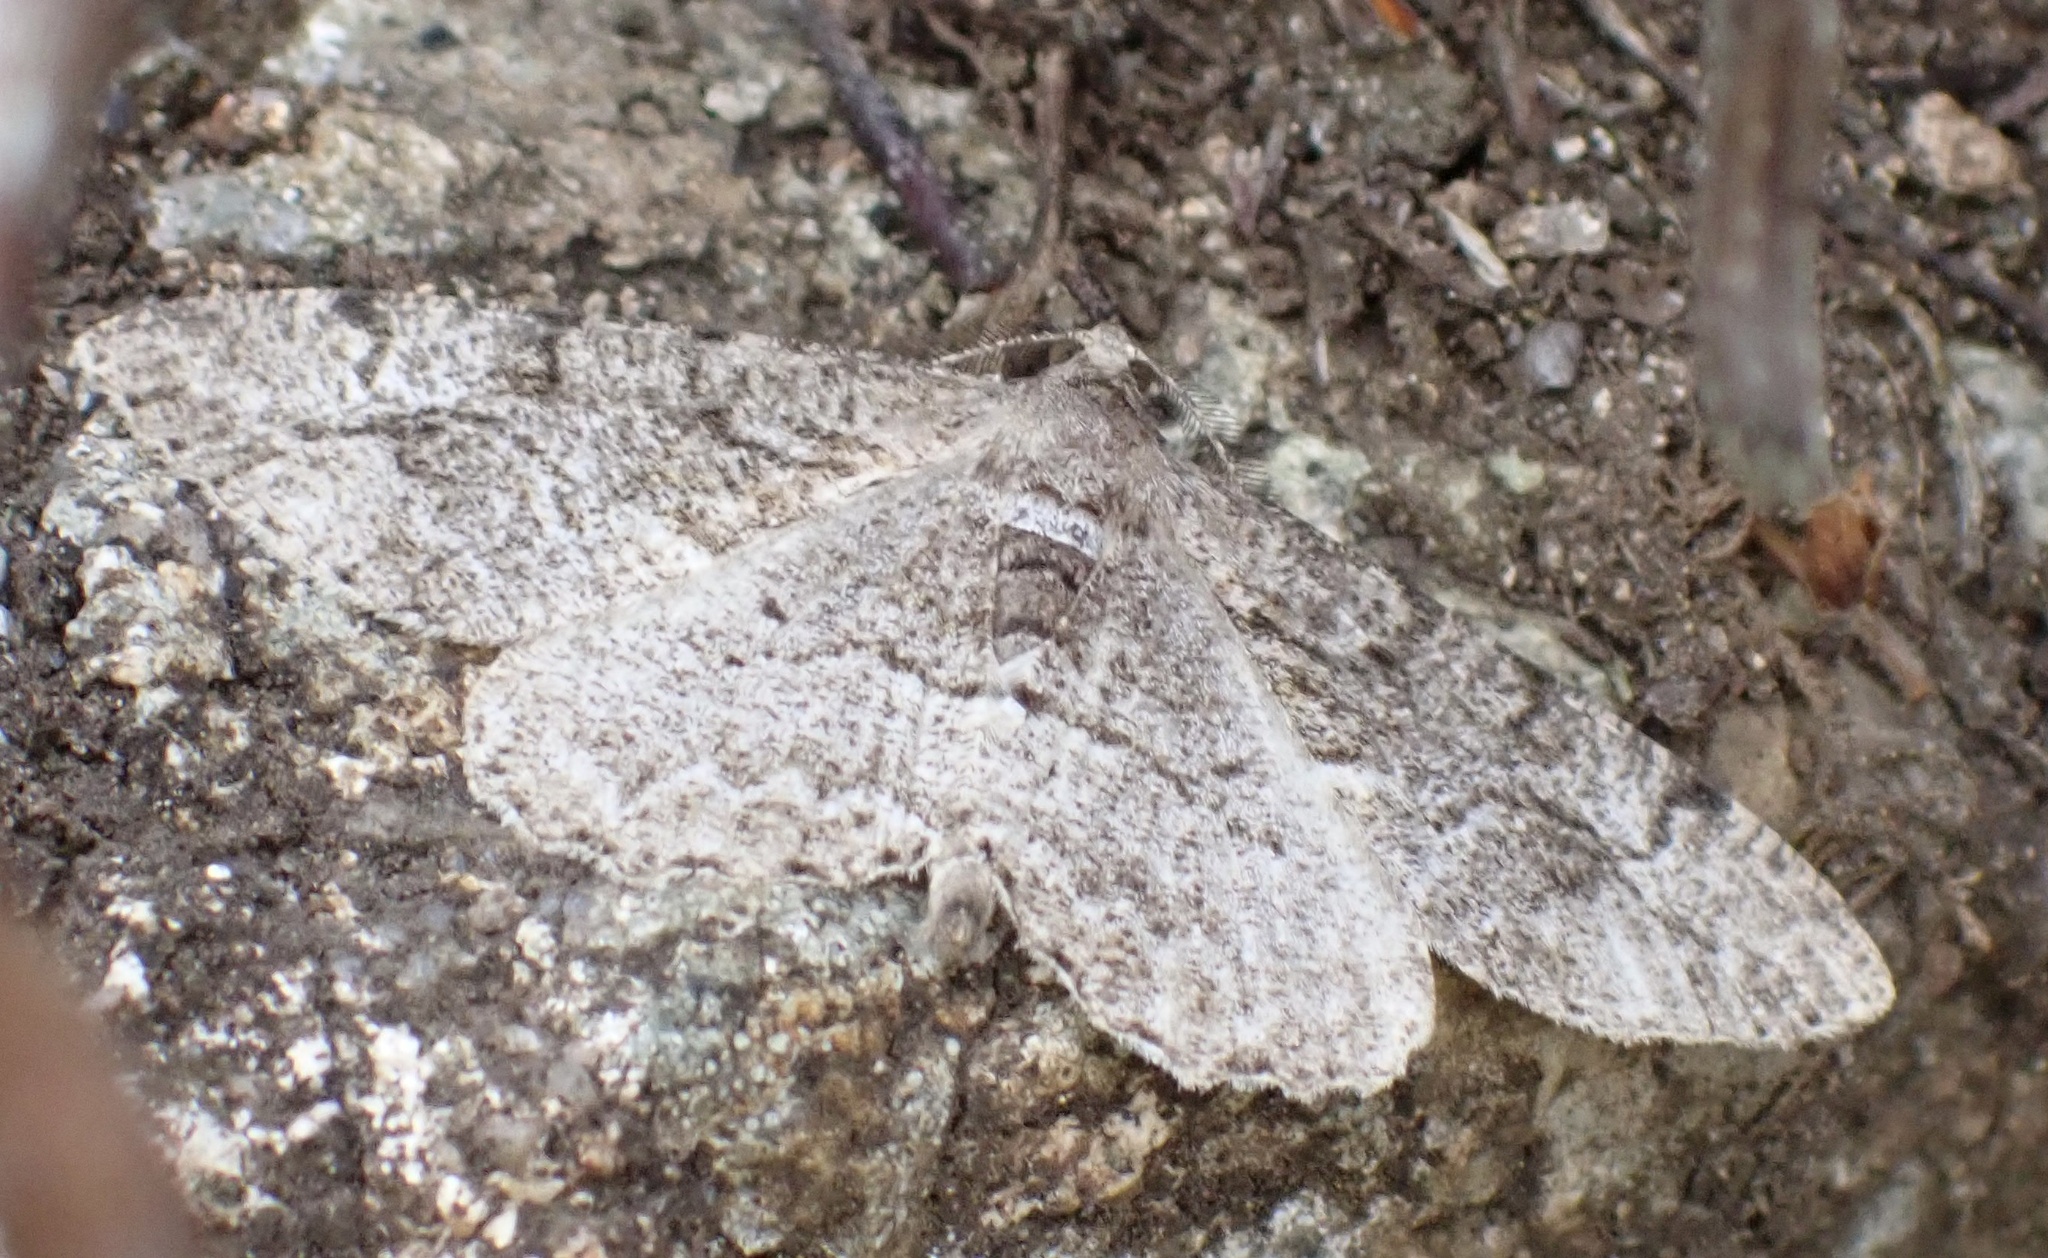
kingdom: Animalia
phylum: Arthropoda
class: Insecta
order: Lepidoptera
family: Geometridae
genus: Alcis
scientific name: Alcis repandata
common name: Mottled beauty
